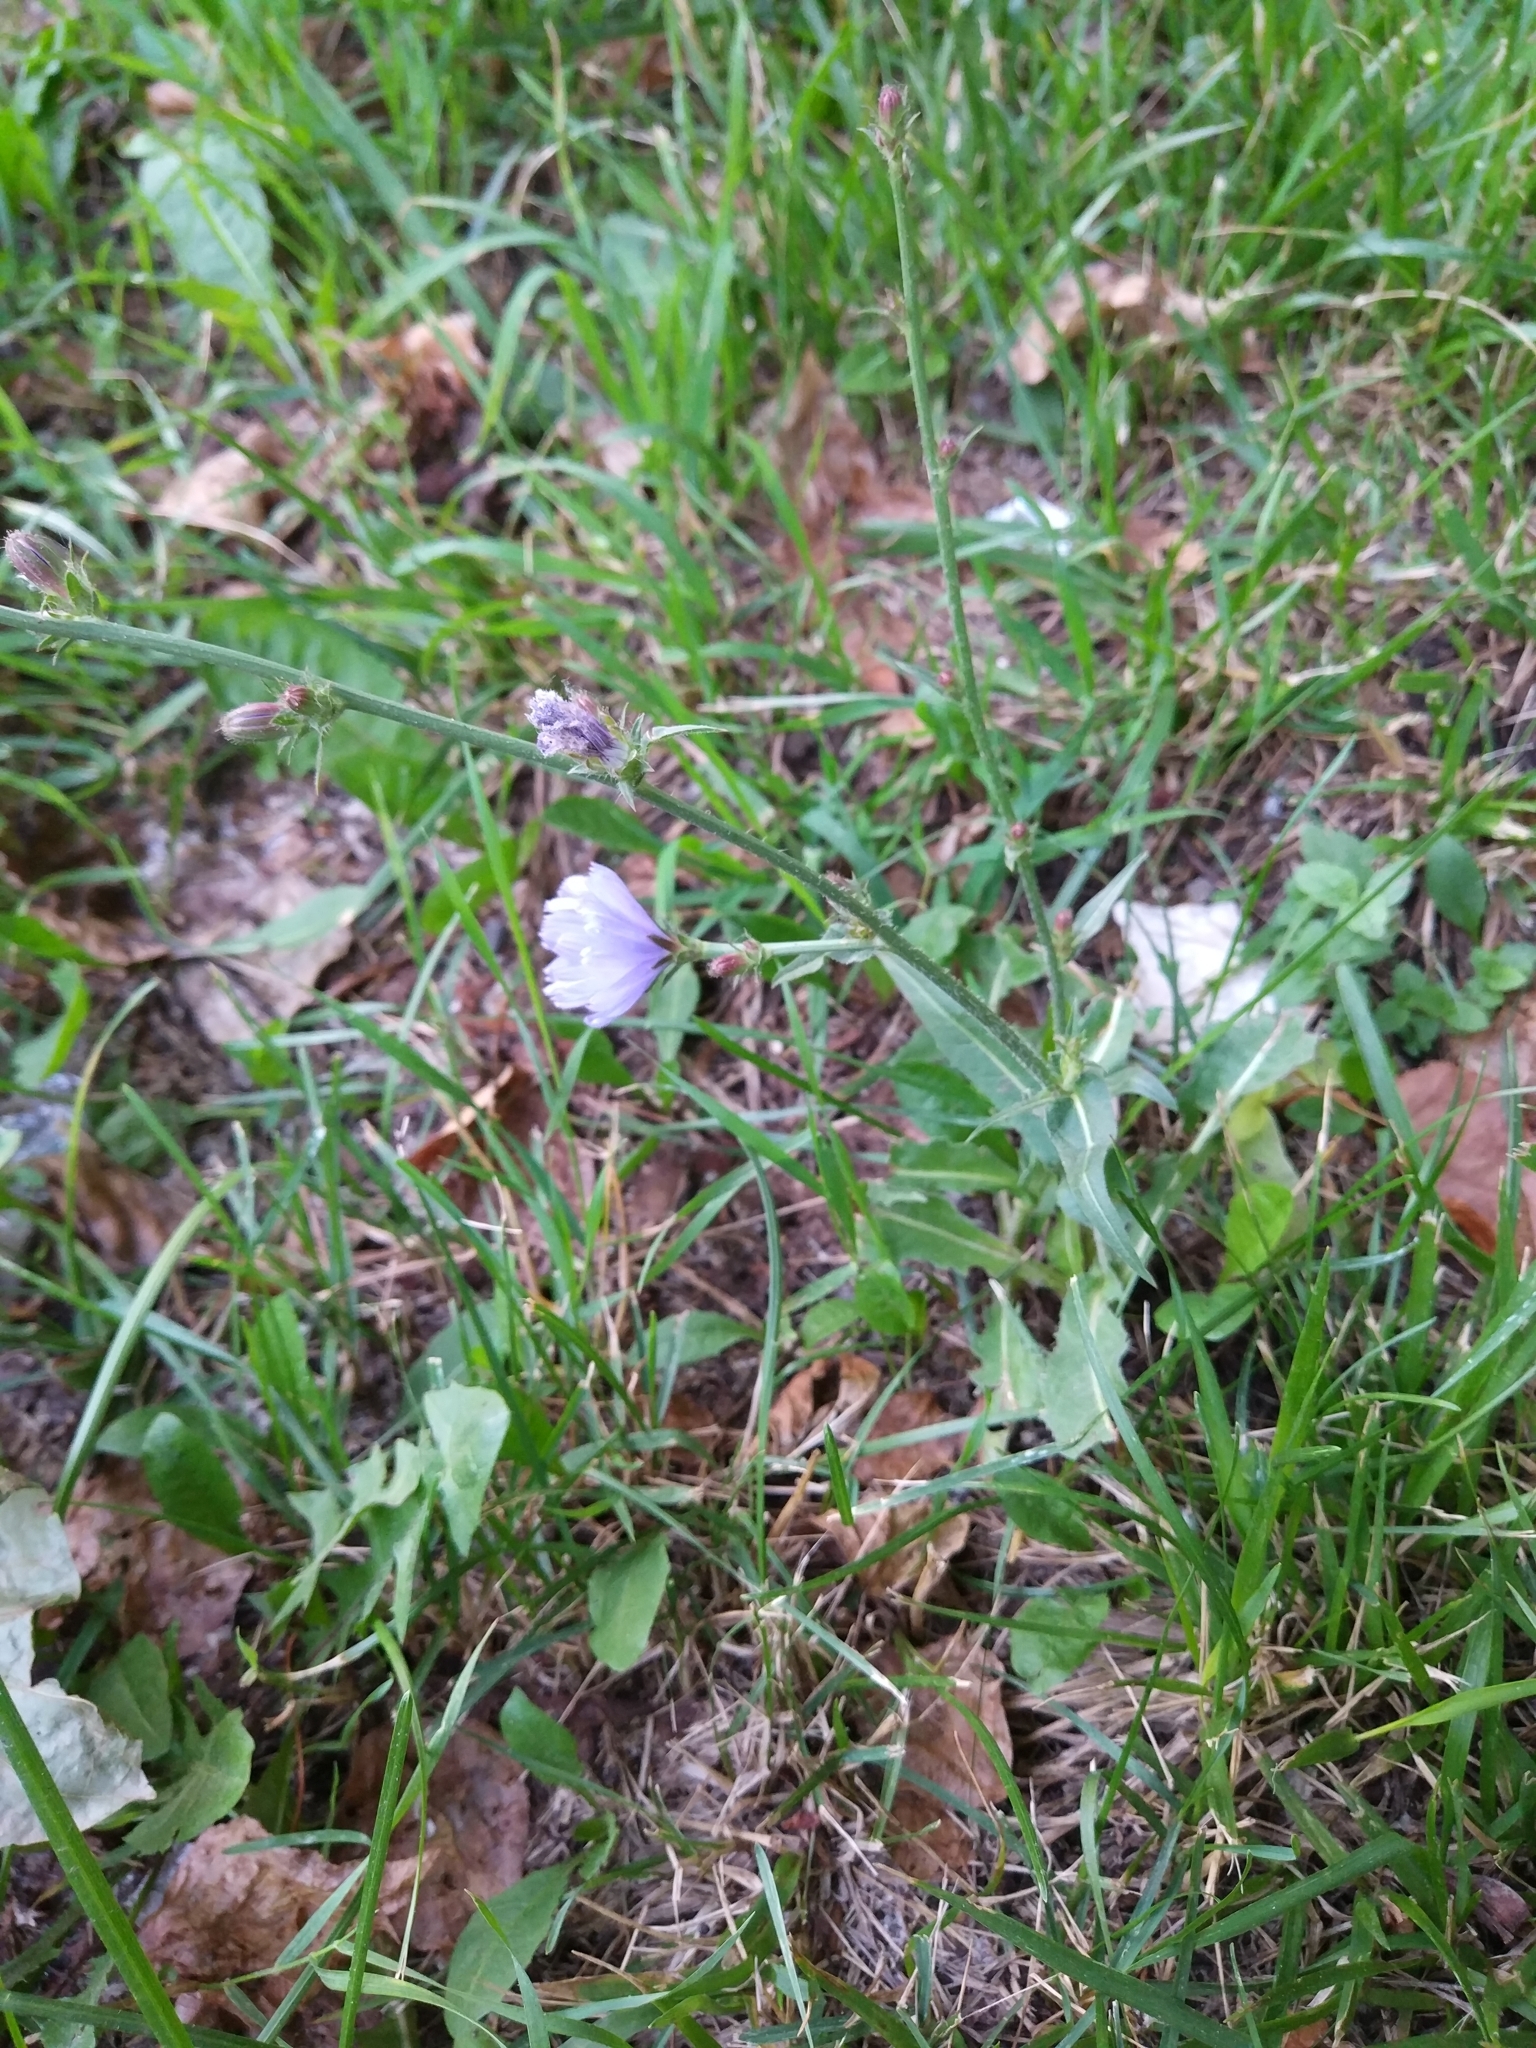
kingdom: Plantae
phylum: Tracheophyta
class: Magnoliopsida
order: Asterales
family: Asteraceae
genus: Cichorium
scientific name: Cichorium intybus
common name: Chicory
